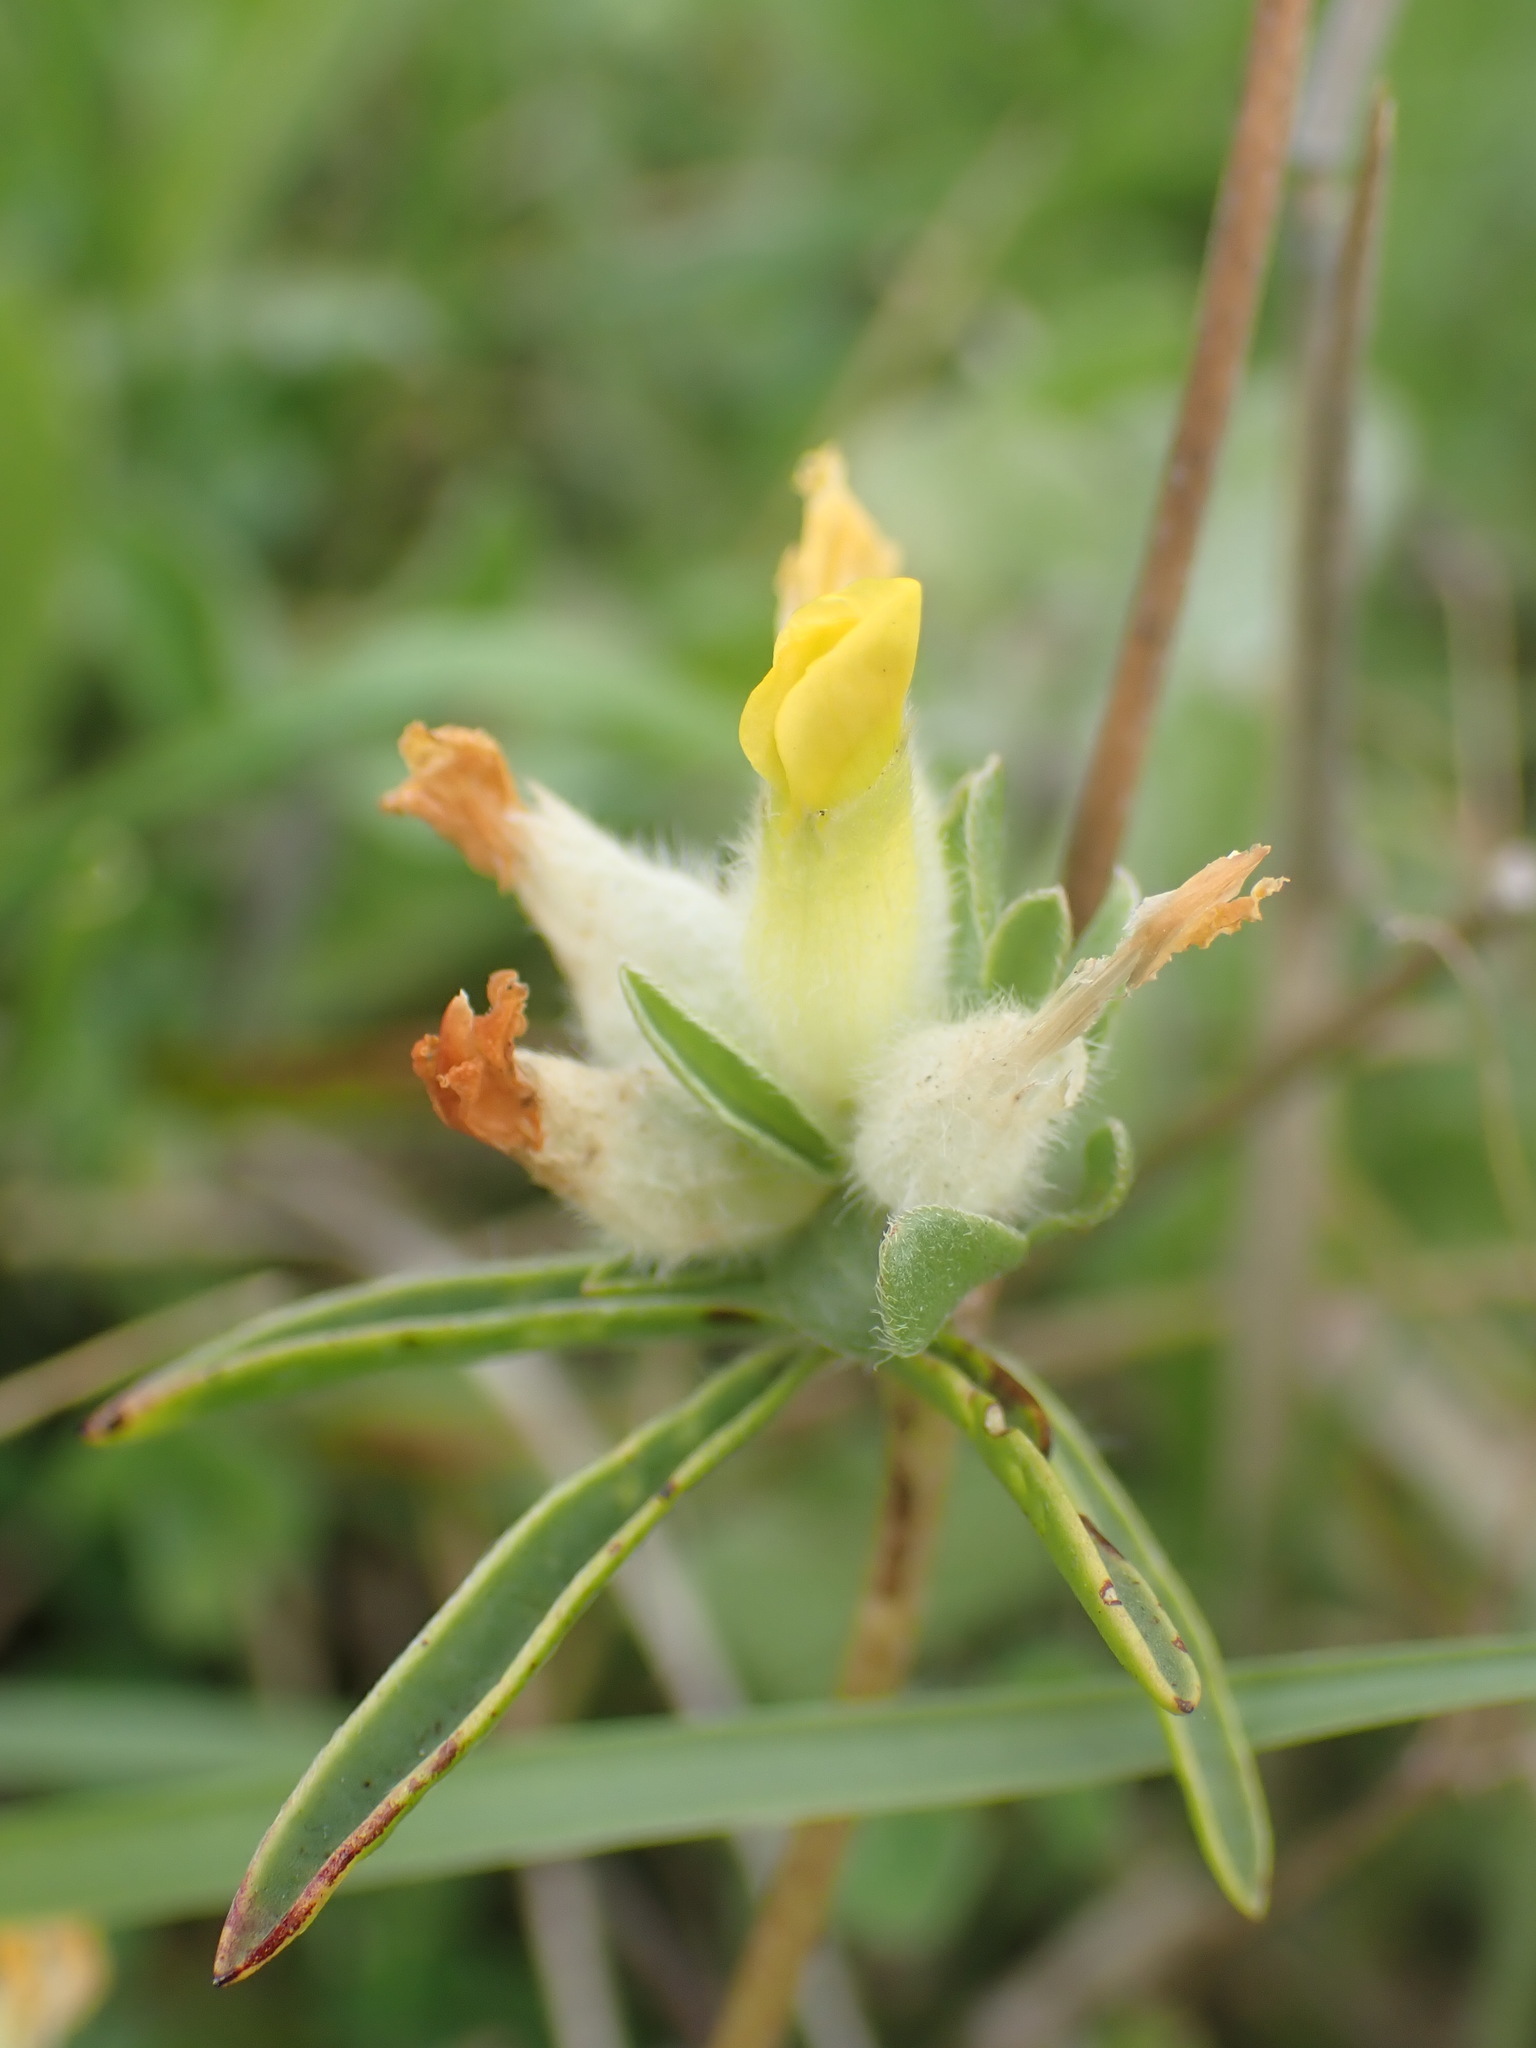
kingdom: Plantae
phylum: Tracheophyta
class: Magnoliopsida
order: Fabales
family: Fabaceae
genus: Anthyllis
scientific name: Anthyllis vulneraria
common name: Kidney vetch
